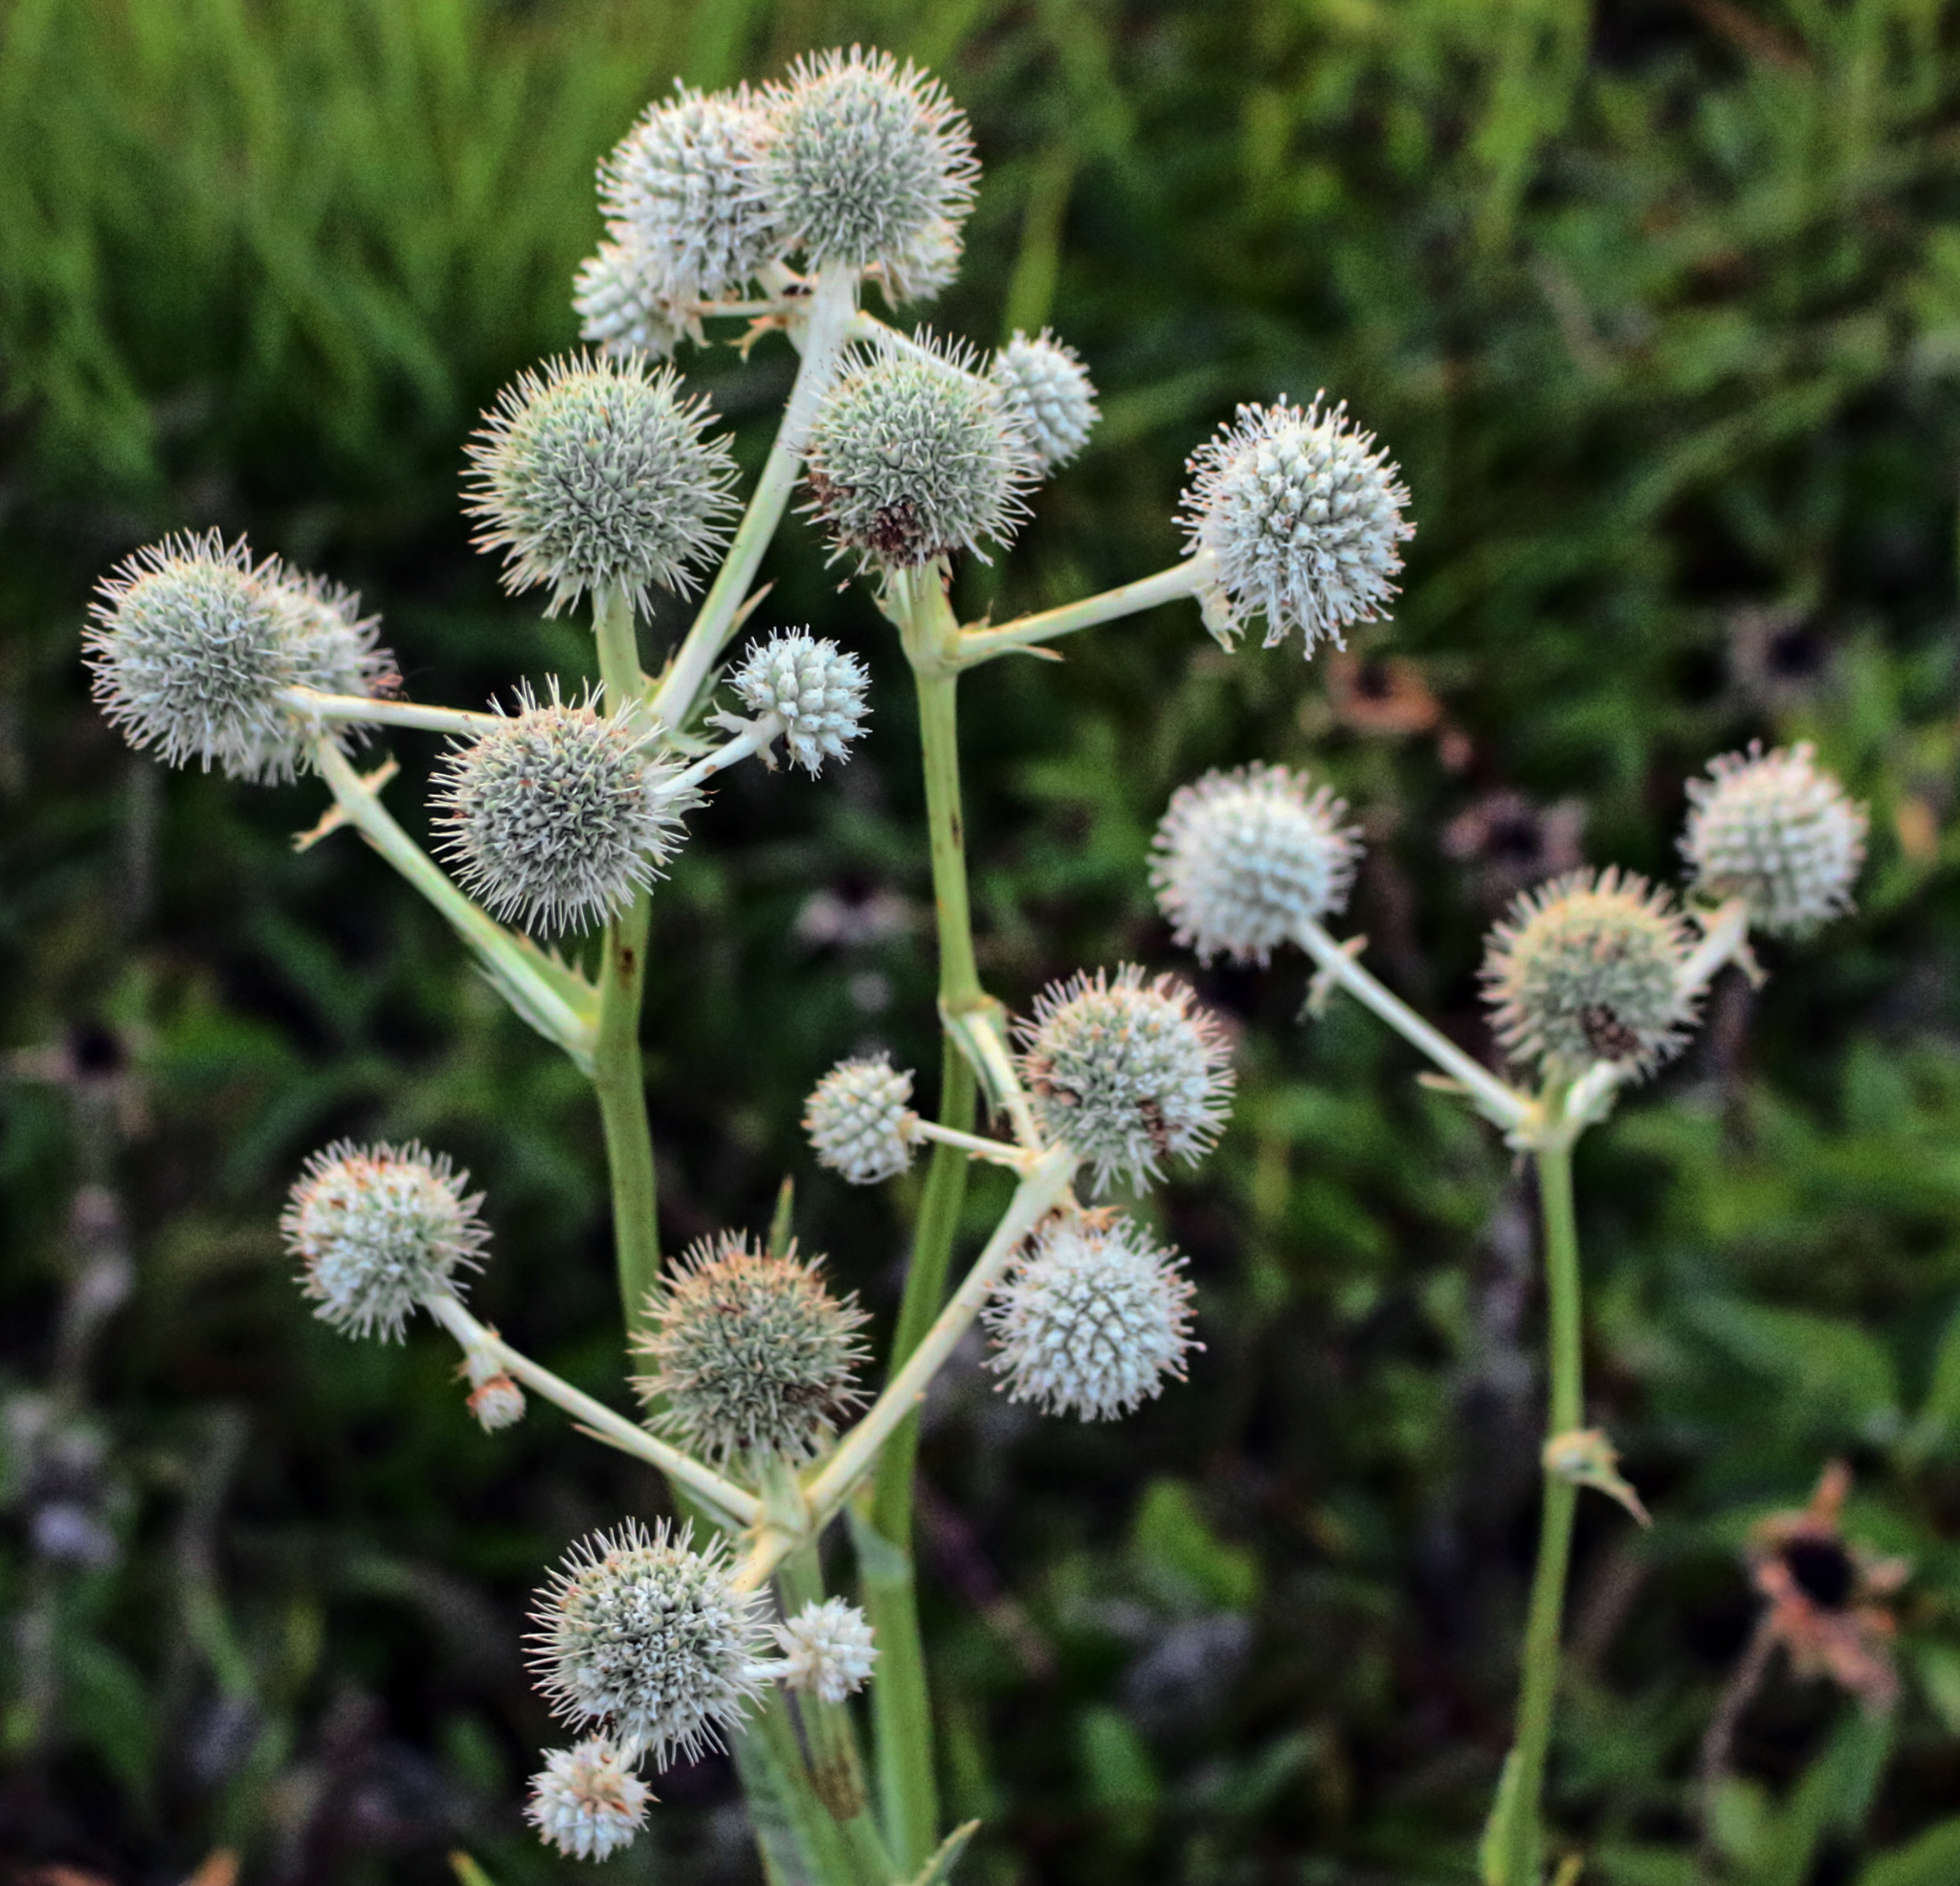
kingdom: Plantae
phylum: Tracheophyta
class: Magnoliopsida
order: Apiales
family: Apiaceae
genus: Eryngium
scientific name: Eryngium yuccifolium
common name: Button eryngo
